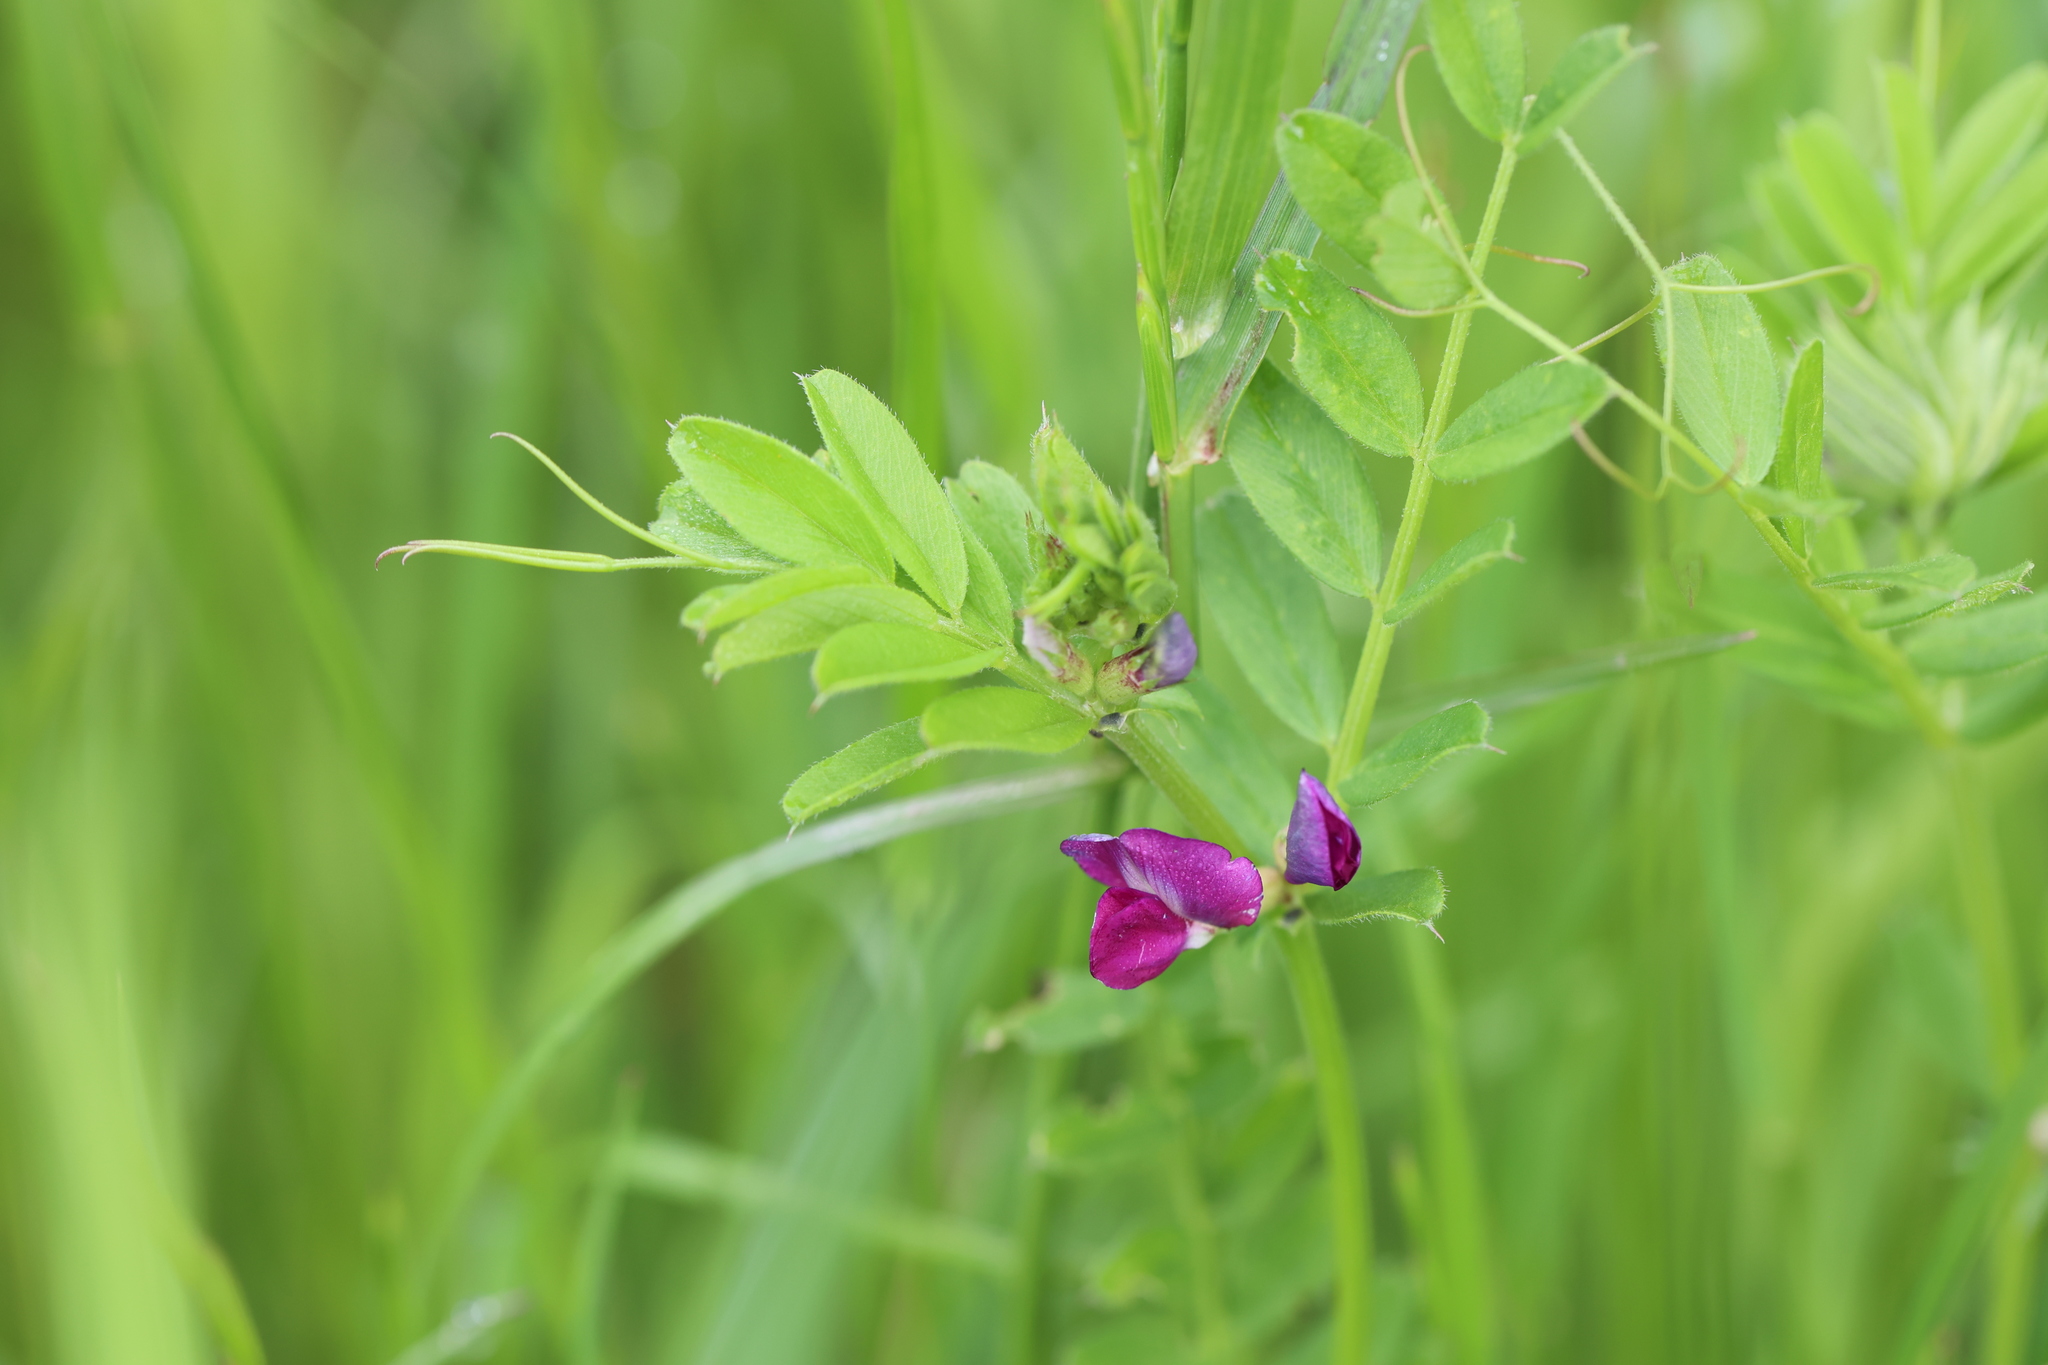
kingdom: Plantae
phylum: Tracheophyta
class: Magnoliopsida
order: Fabales
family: Fabaceae
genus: Vicia
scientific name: Vicia sativa
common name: Garden vetch
